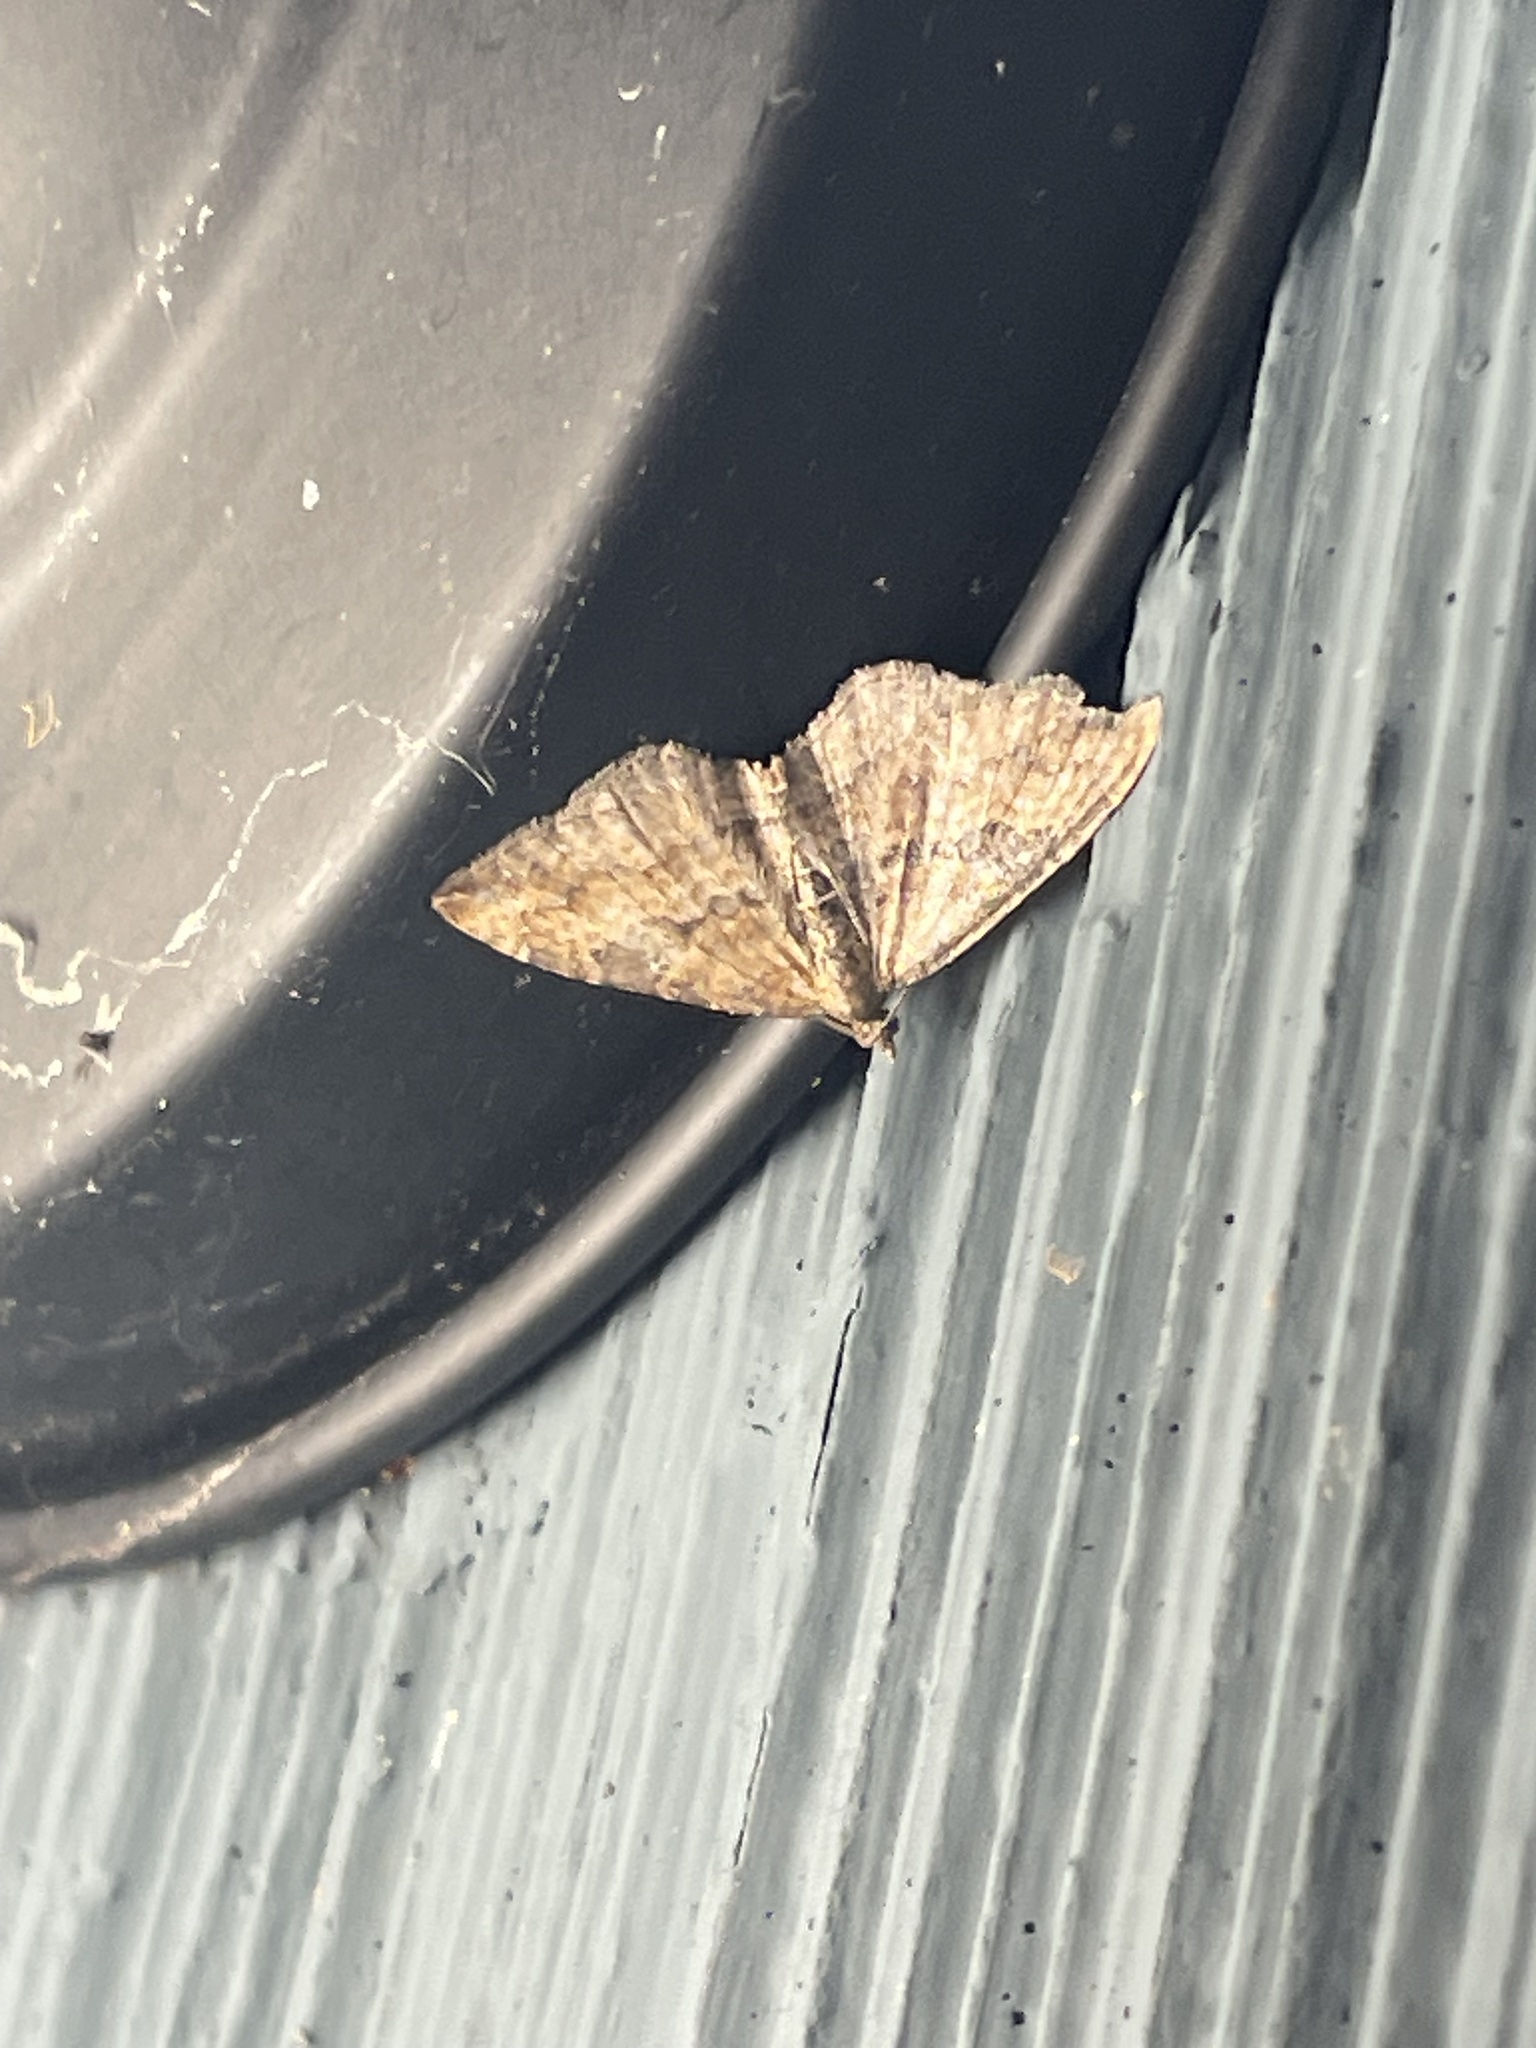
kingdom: Animalia
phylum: Arthropoda
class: Insecta
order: Lepidoptera
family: Geometridae
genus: Orthonama
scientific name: Orthonama obstipata
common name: The gem
